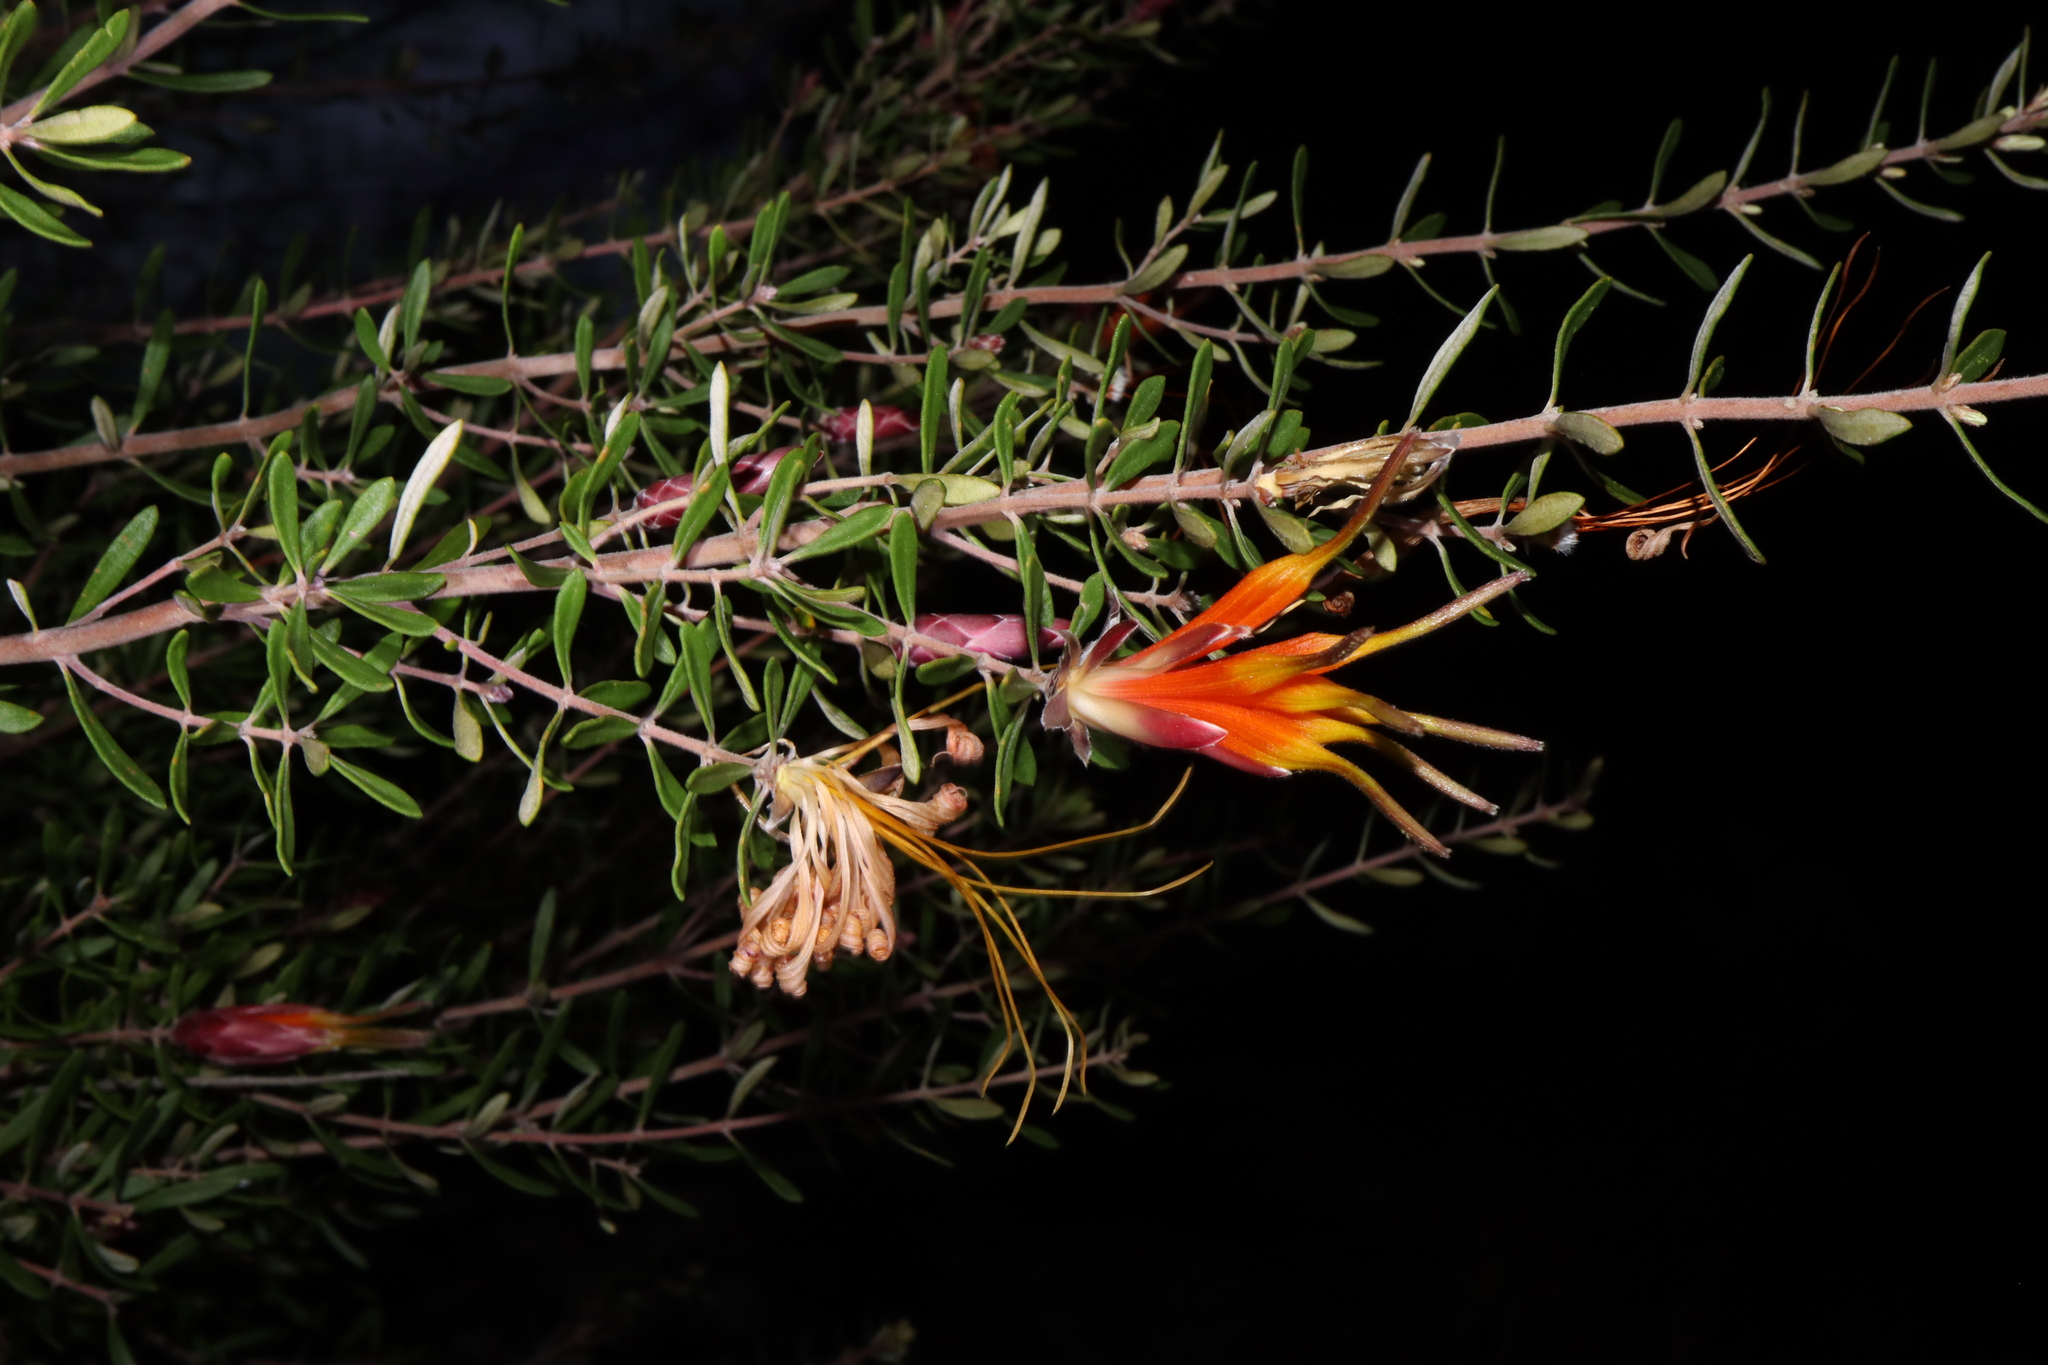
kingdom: Plantae
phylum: Tracheophyta
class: Magnoliopsida
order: Proteales
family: Proteaceae
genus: Lambertia
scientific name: Lambertia inermis
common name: Chittick
